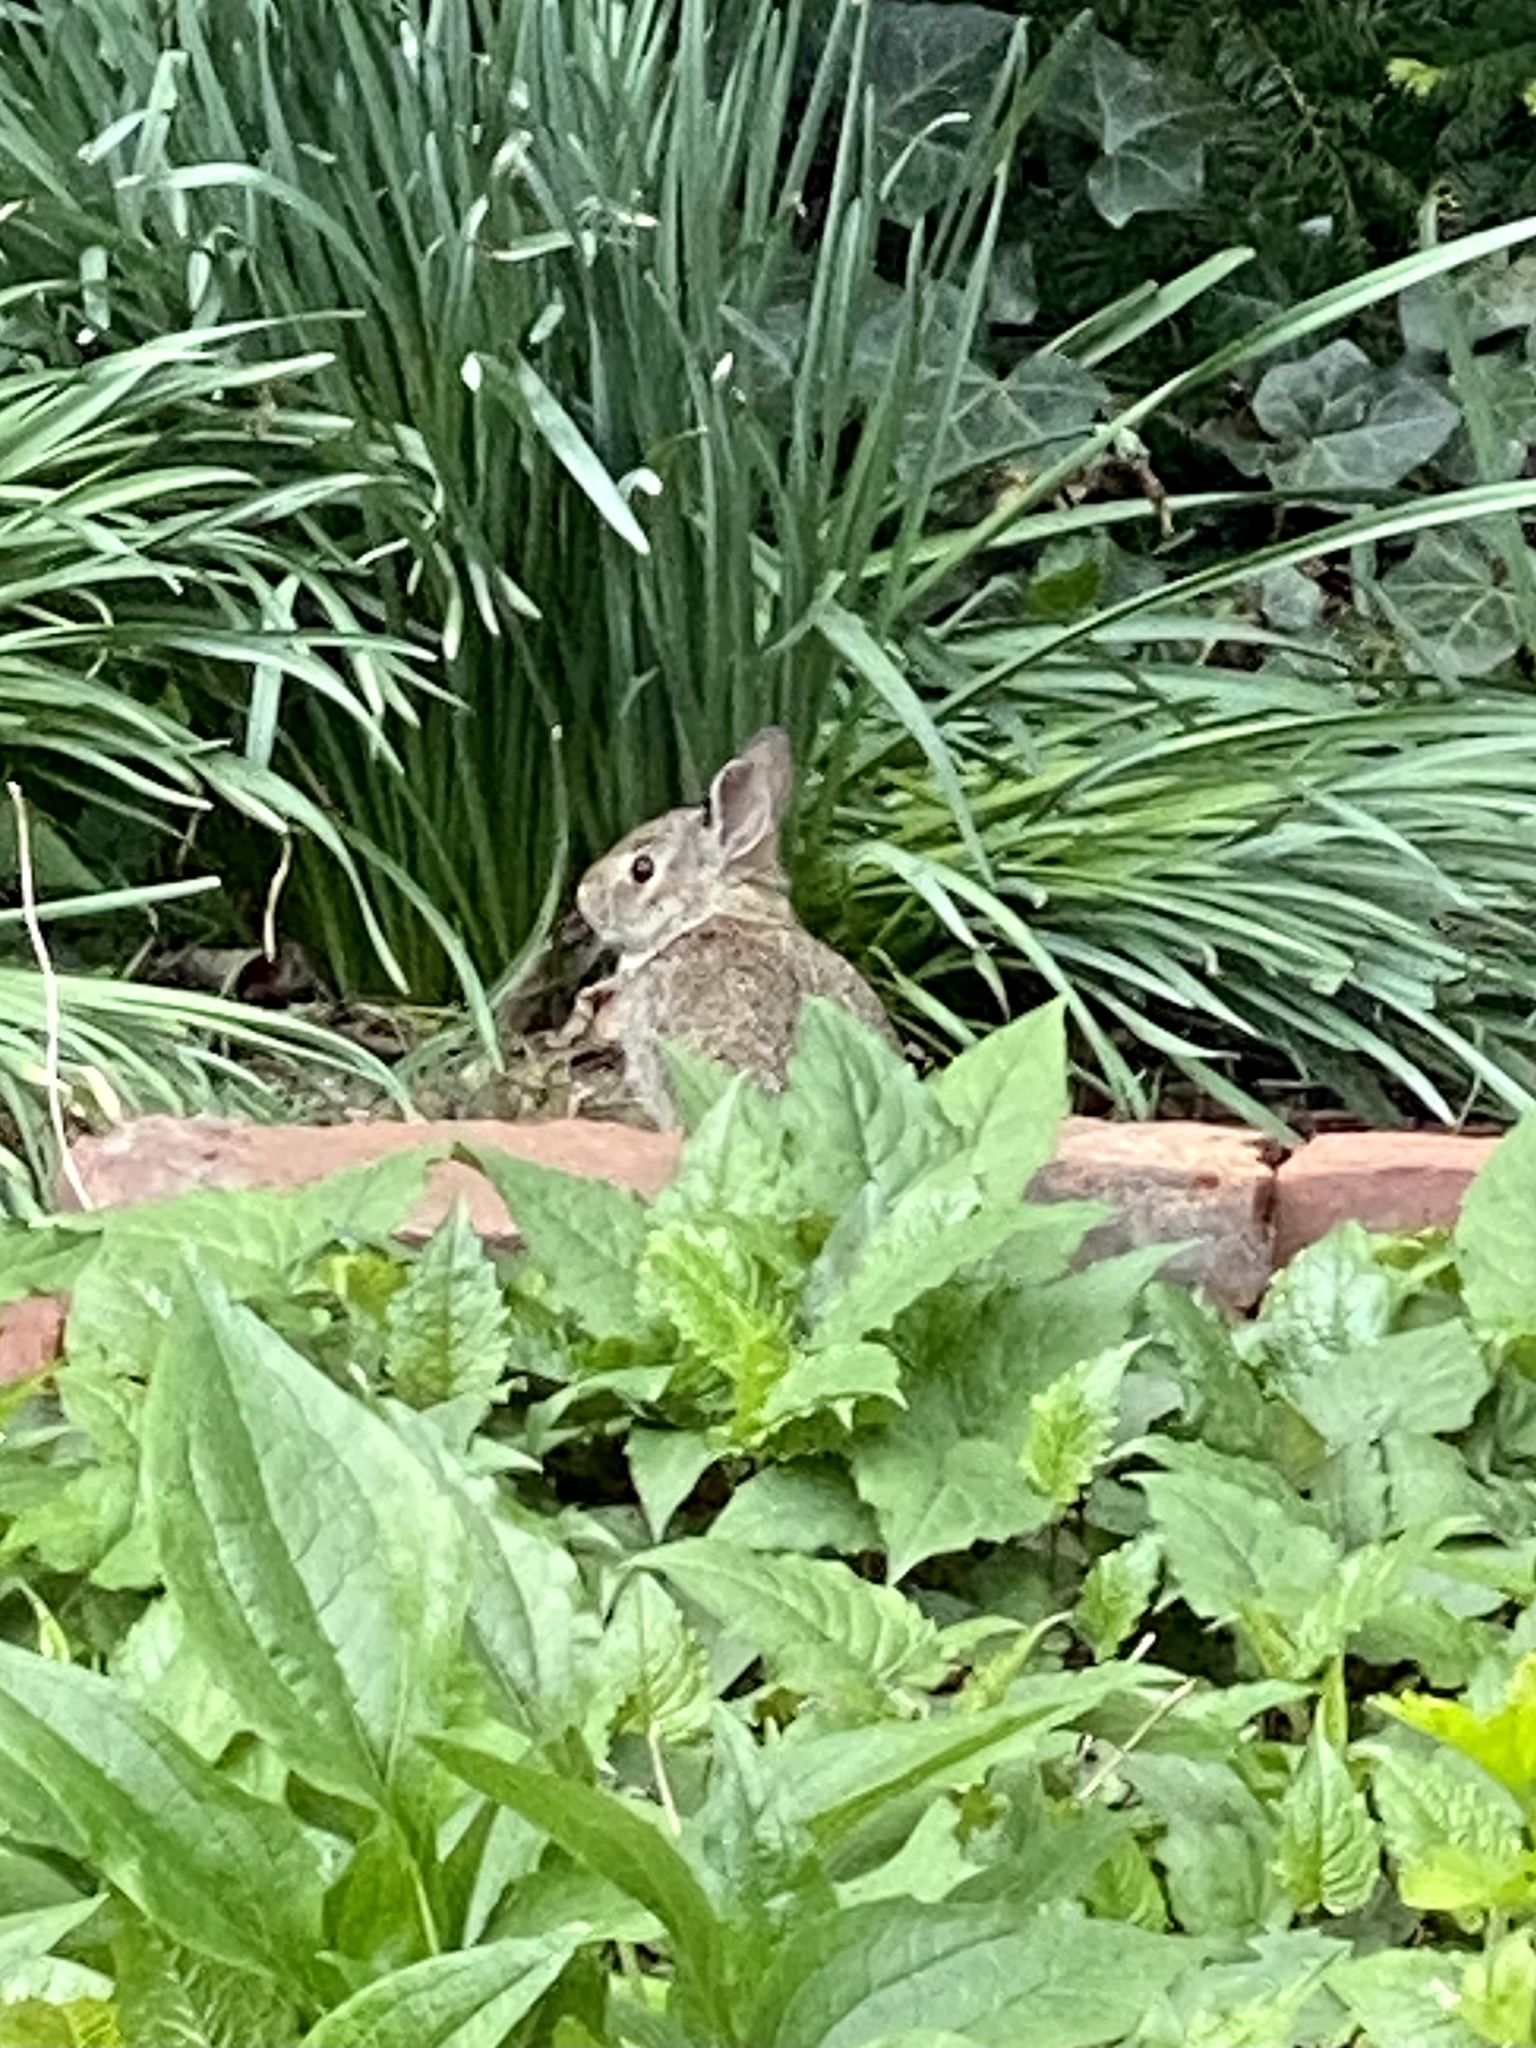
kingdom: Animalia
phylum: Chordata
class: Mammalia
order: Lagomorpha
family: Leporidae
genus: Sylvilagus
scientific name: Sylvilagus floridanus
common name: Eastern cottontail
